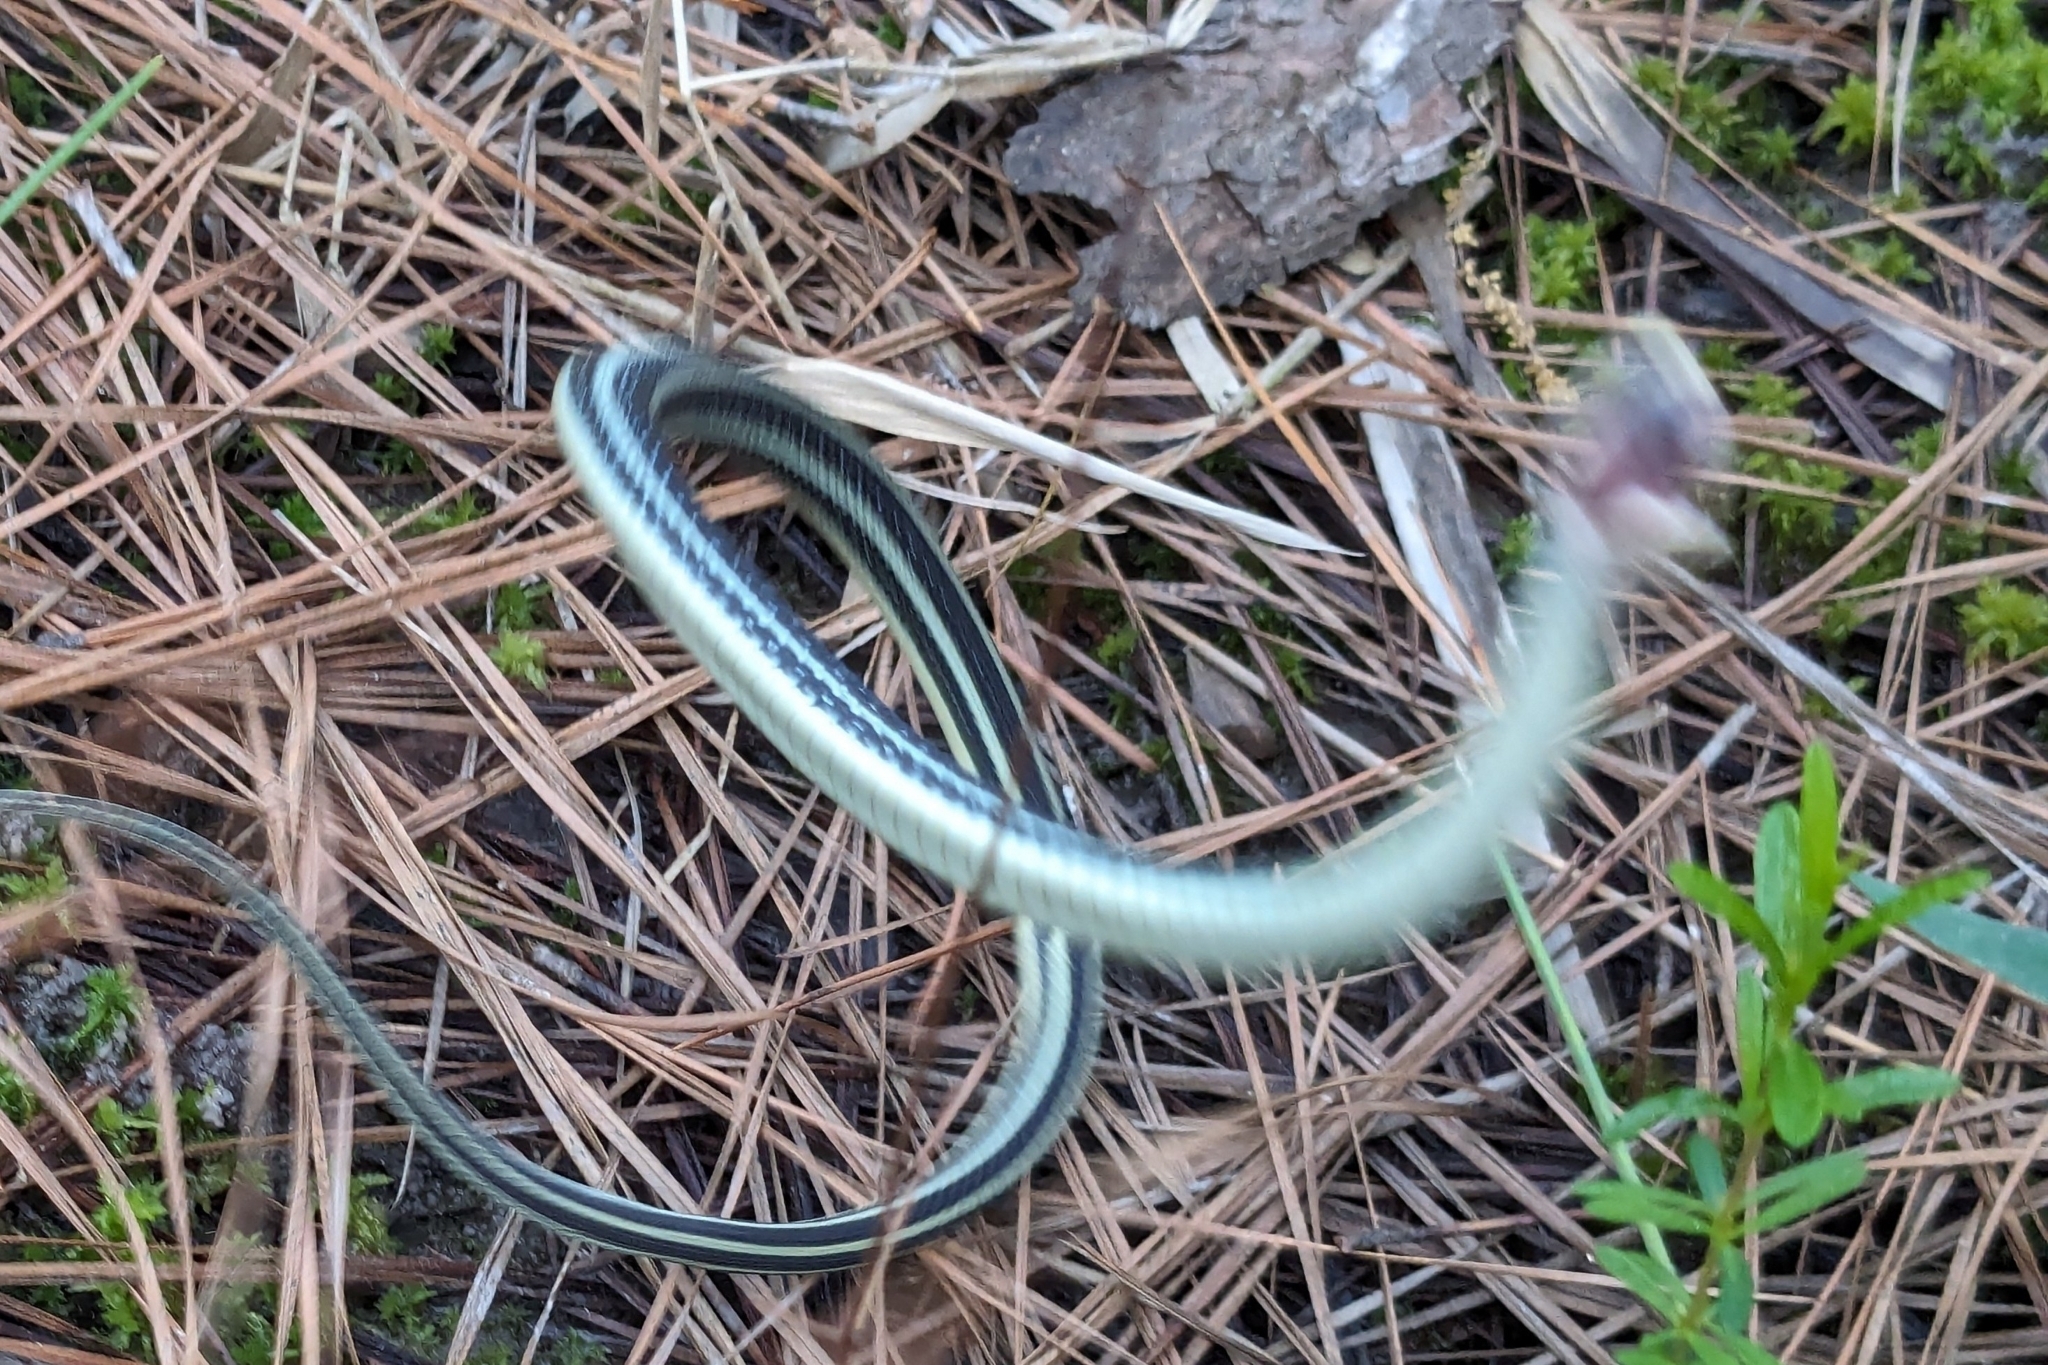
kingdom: Animalia
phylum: Chordata
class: Squamata
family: Colubridae
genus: Thamnophis
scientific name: Thamnophis proximus
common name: Western ribbon snake
